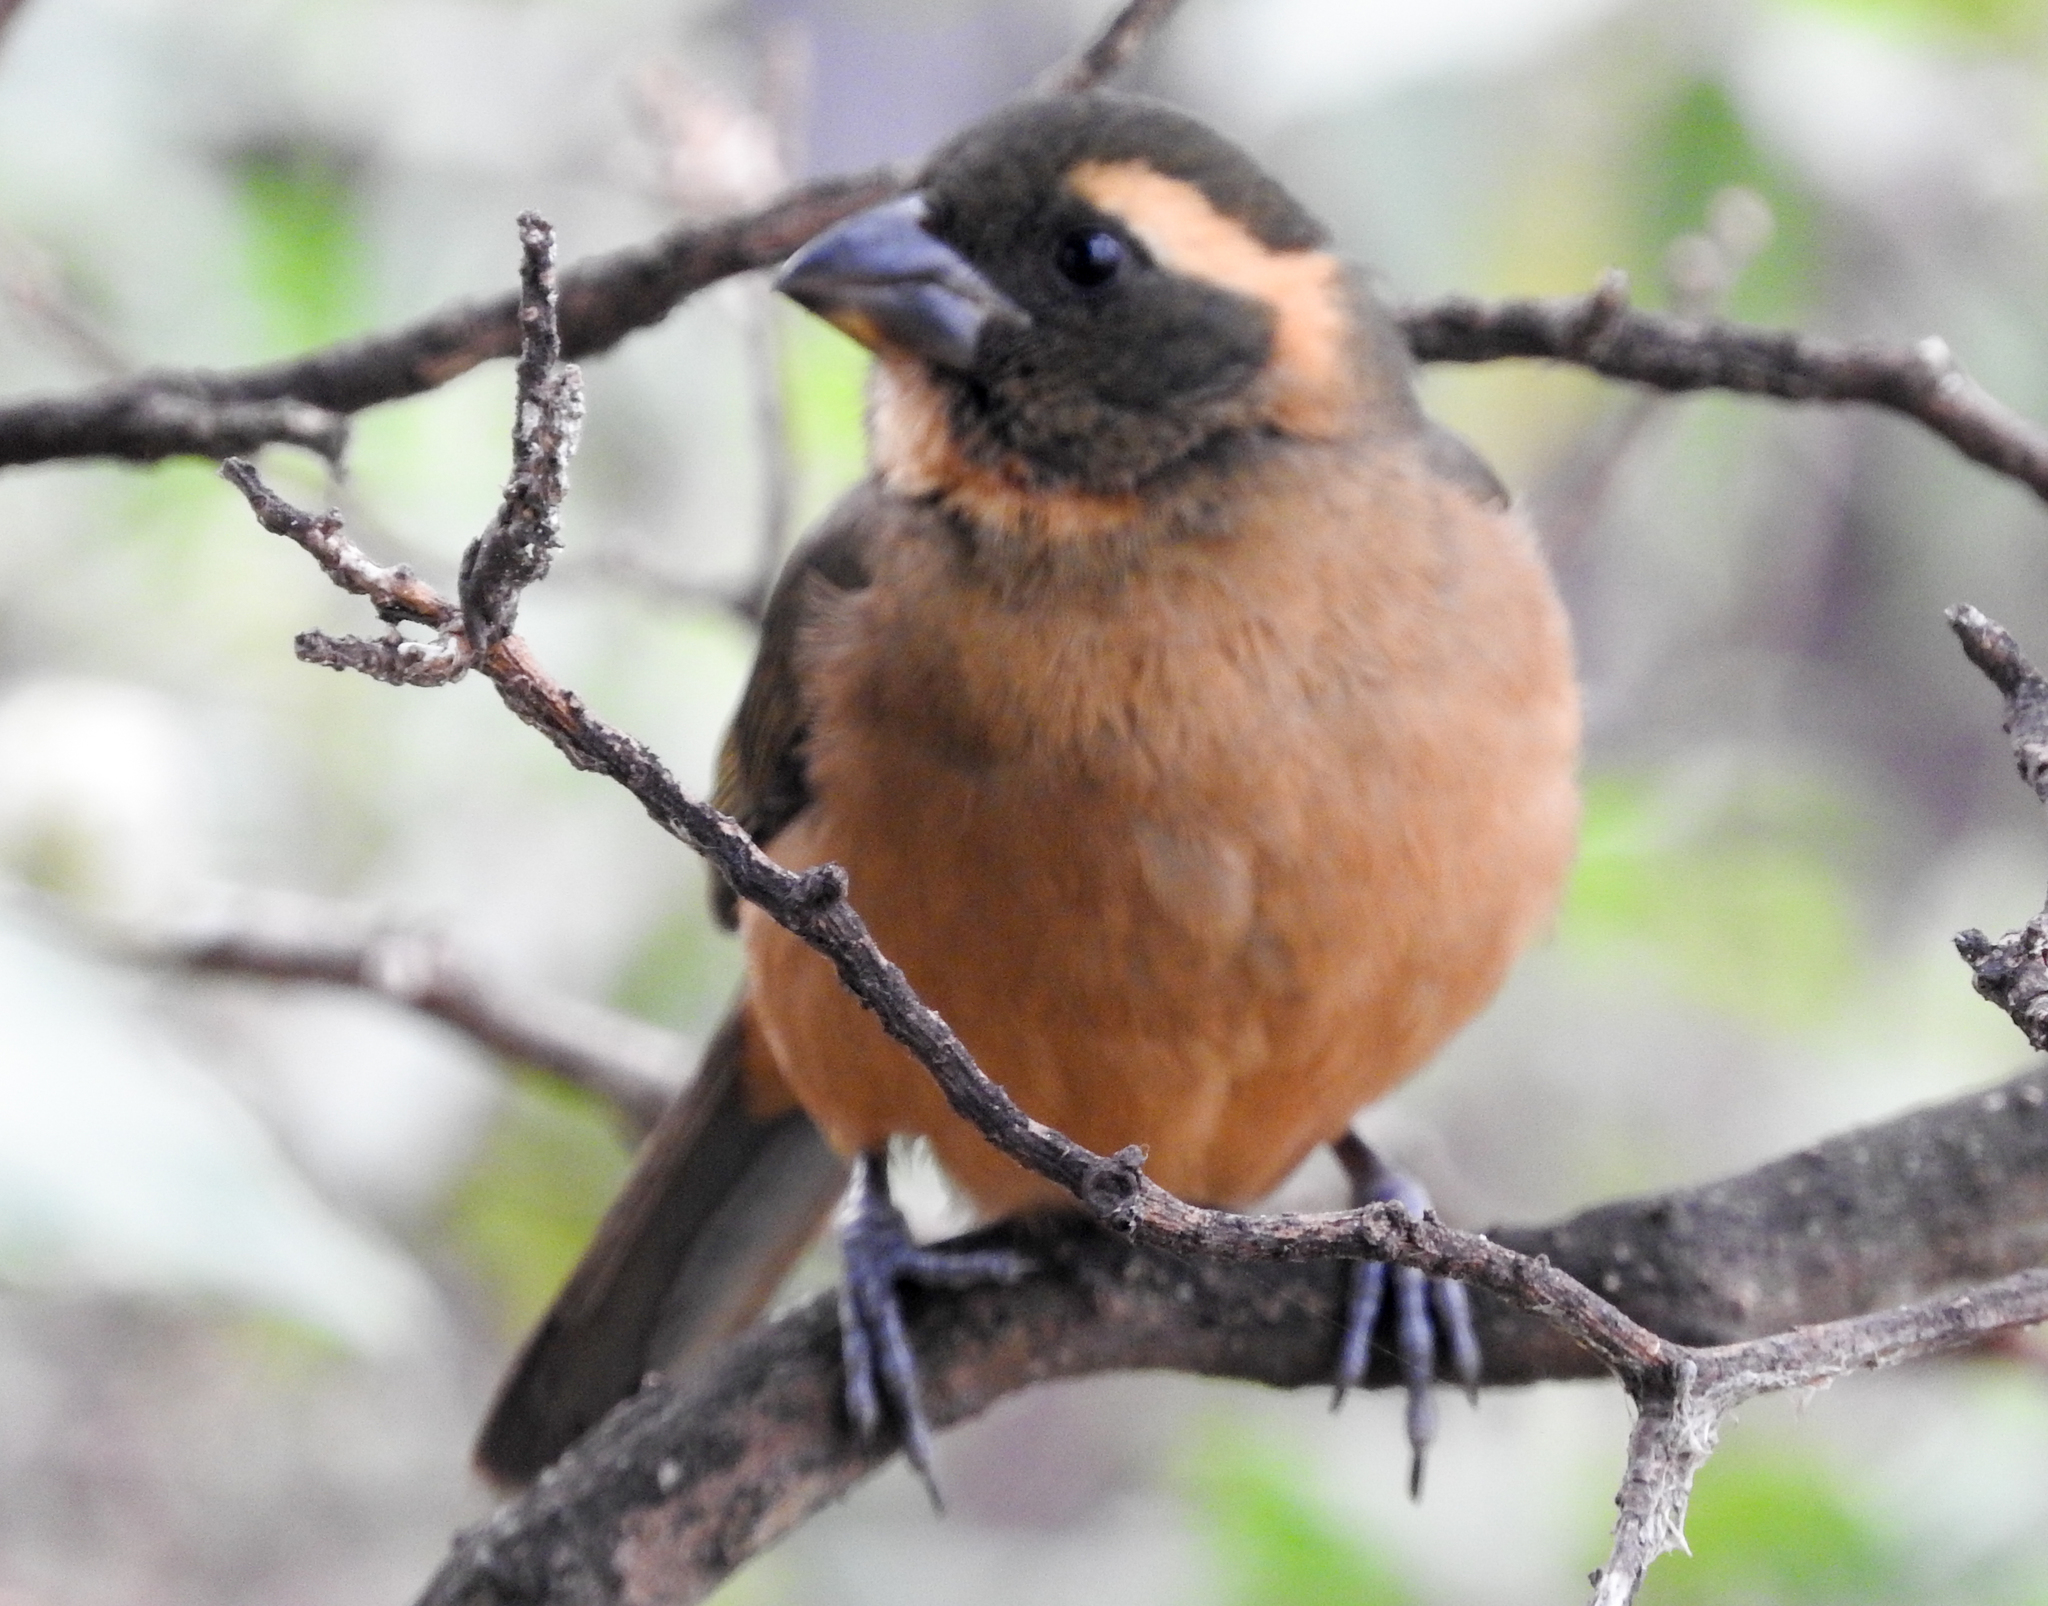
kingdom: Animalia
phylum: Chordata
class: Aves
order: Passeriformes
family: Thraupidae
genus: Saltator
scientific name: Saltator aurantiirostris
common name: Golden-billed saltator
